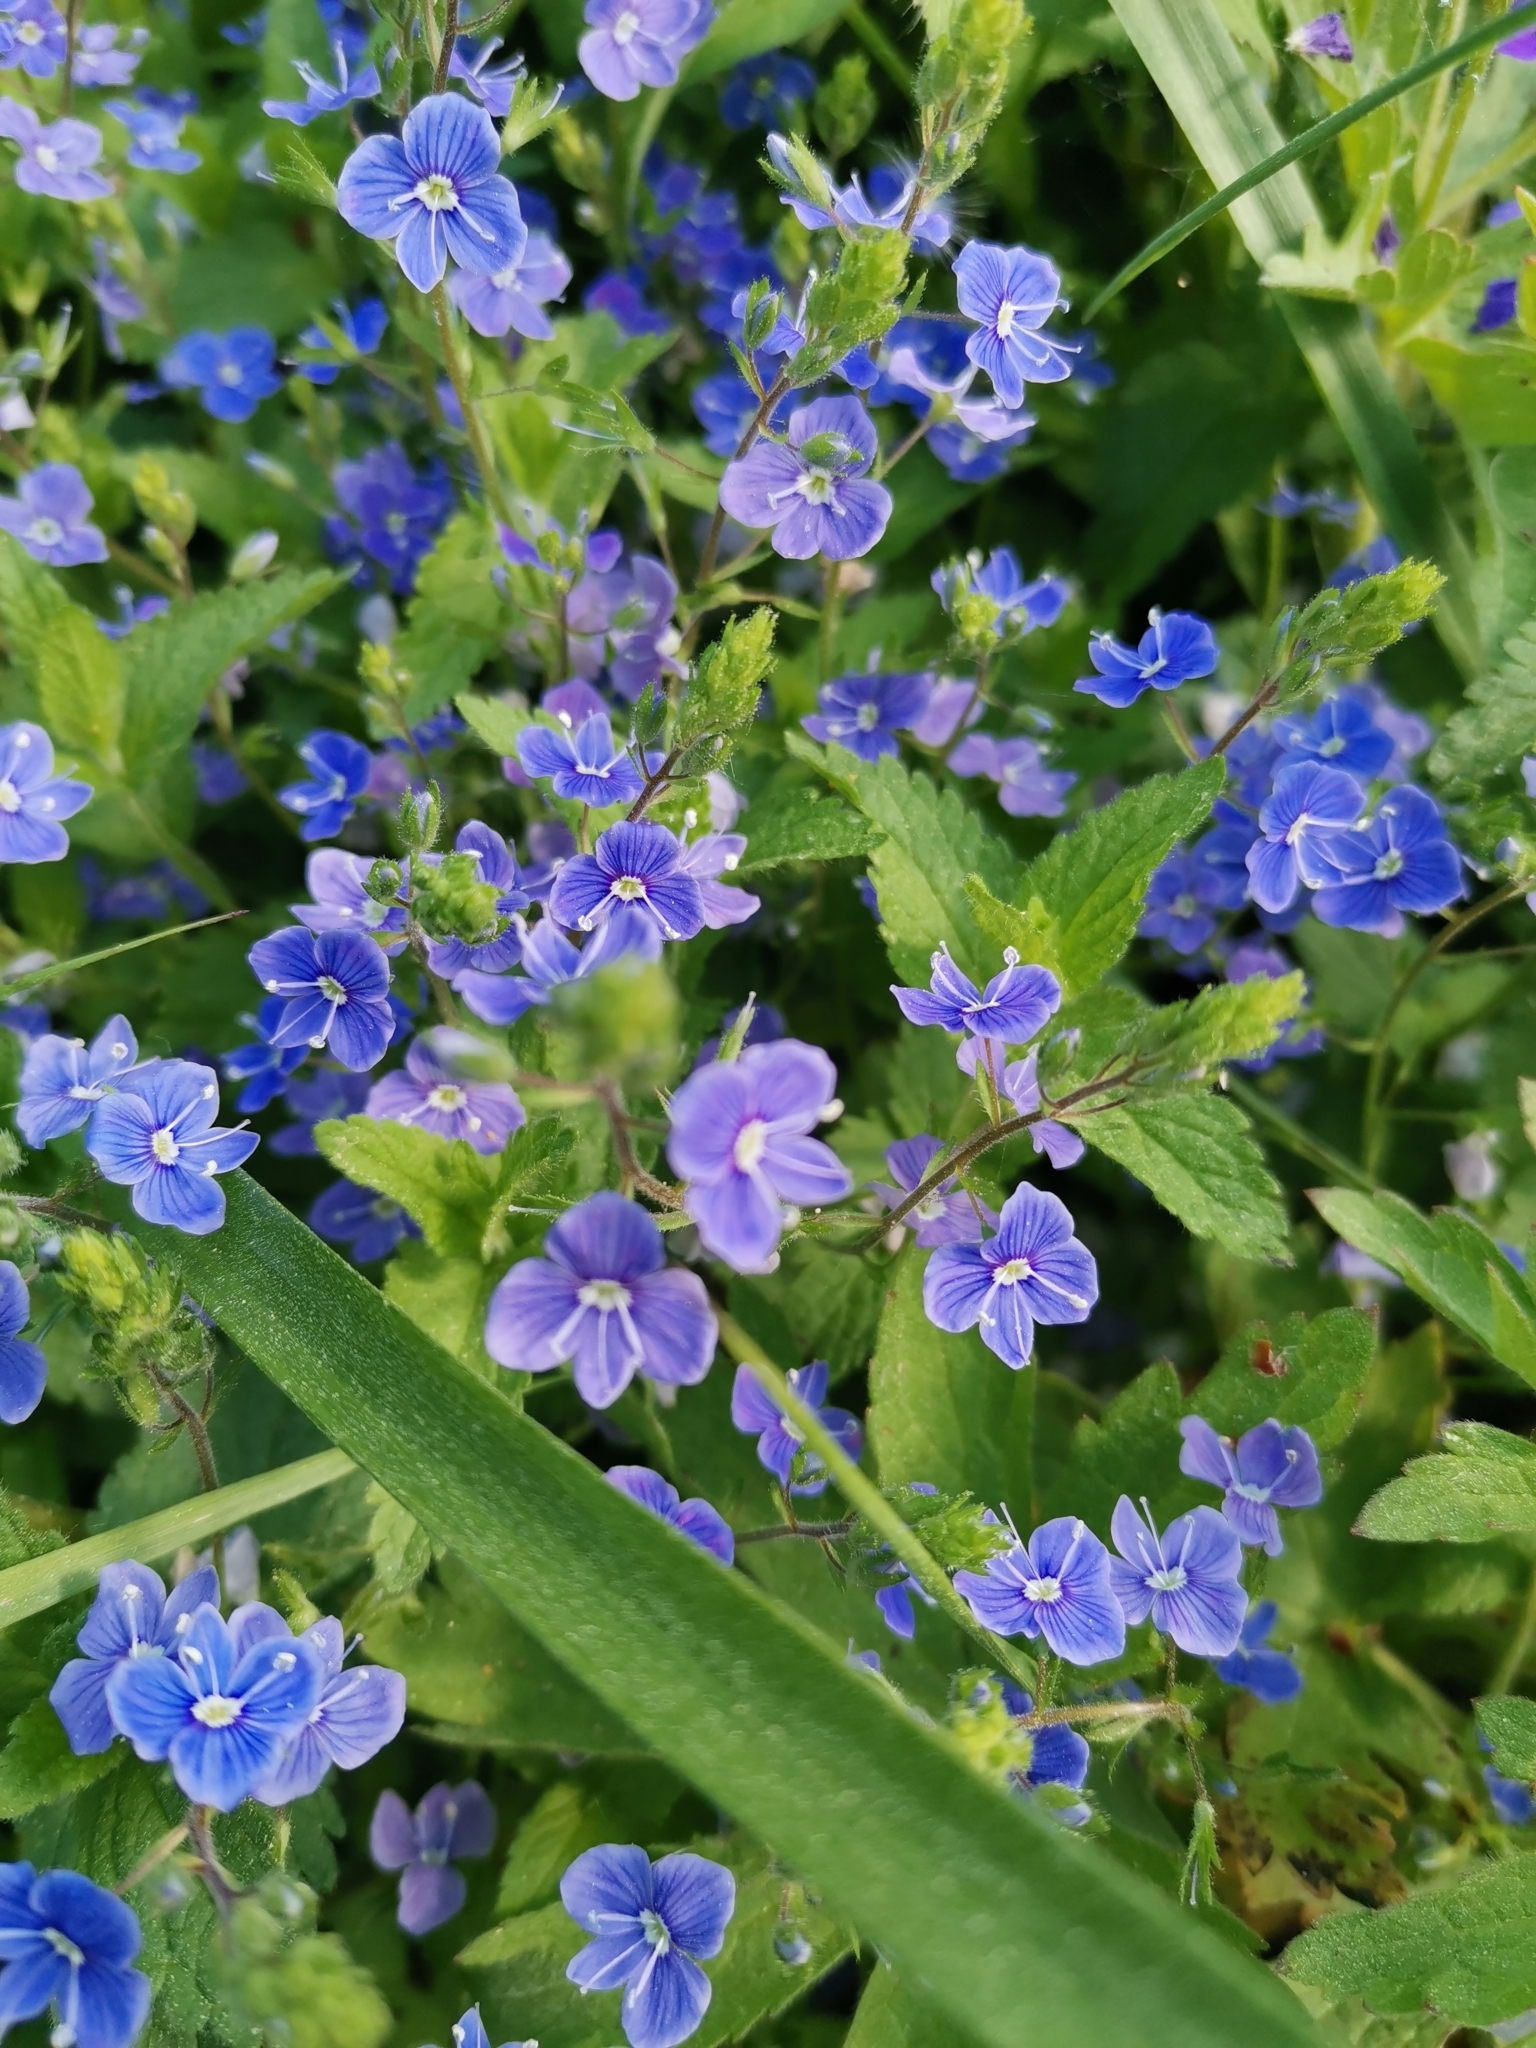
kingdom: Plantae
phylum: Tracheophyta
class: Magnoliopsida
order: Lamiales
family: Plantaginaceae
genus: Veronica
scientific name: Veronica chamaedrys
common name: Germander speedwell
